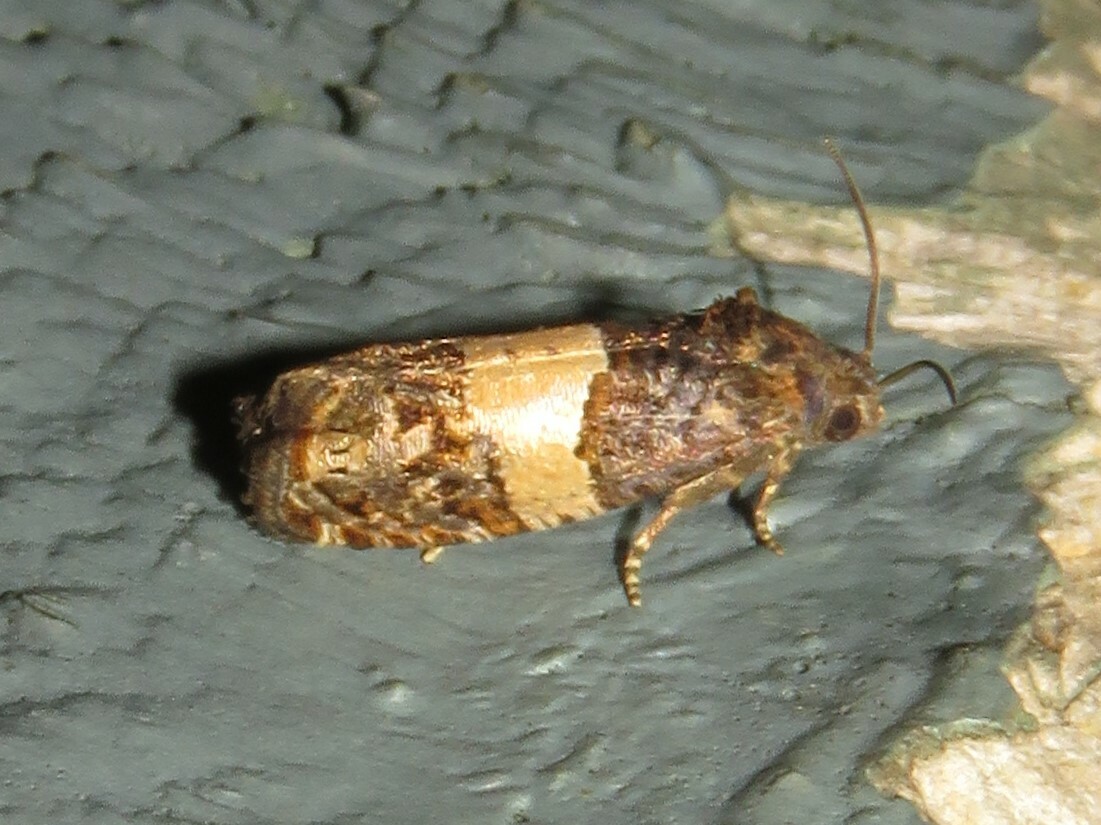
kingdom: Animalia
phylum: Arthropoda
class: Insecta
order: Lepidoptera
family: Tortricidae
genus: Epiblema
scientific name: Epiblema glenni
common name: Glenn's epiblema
